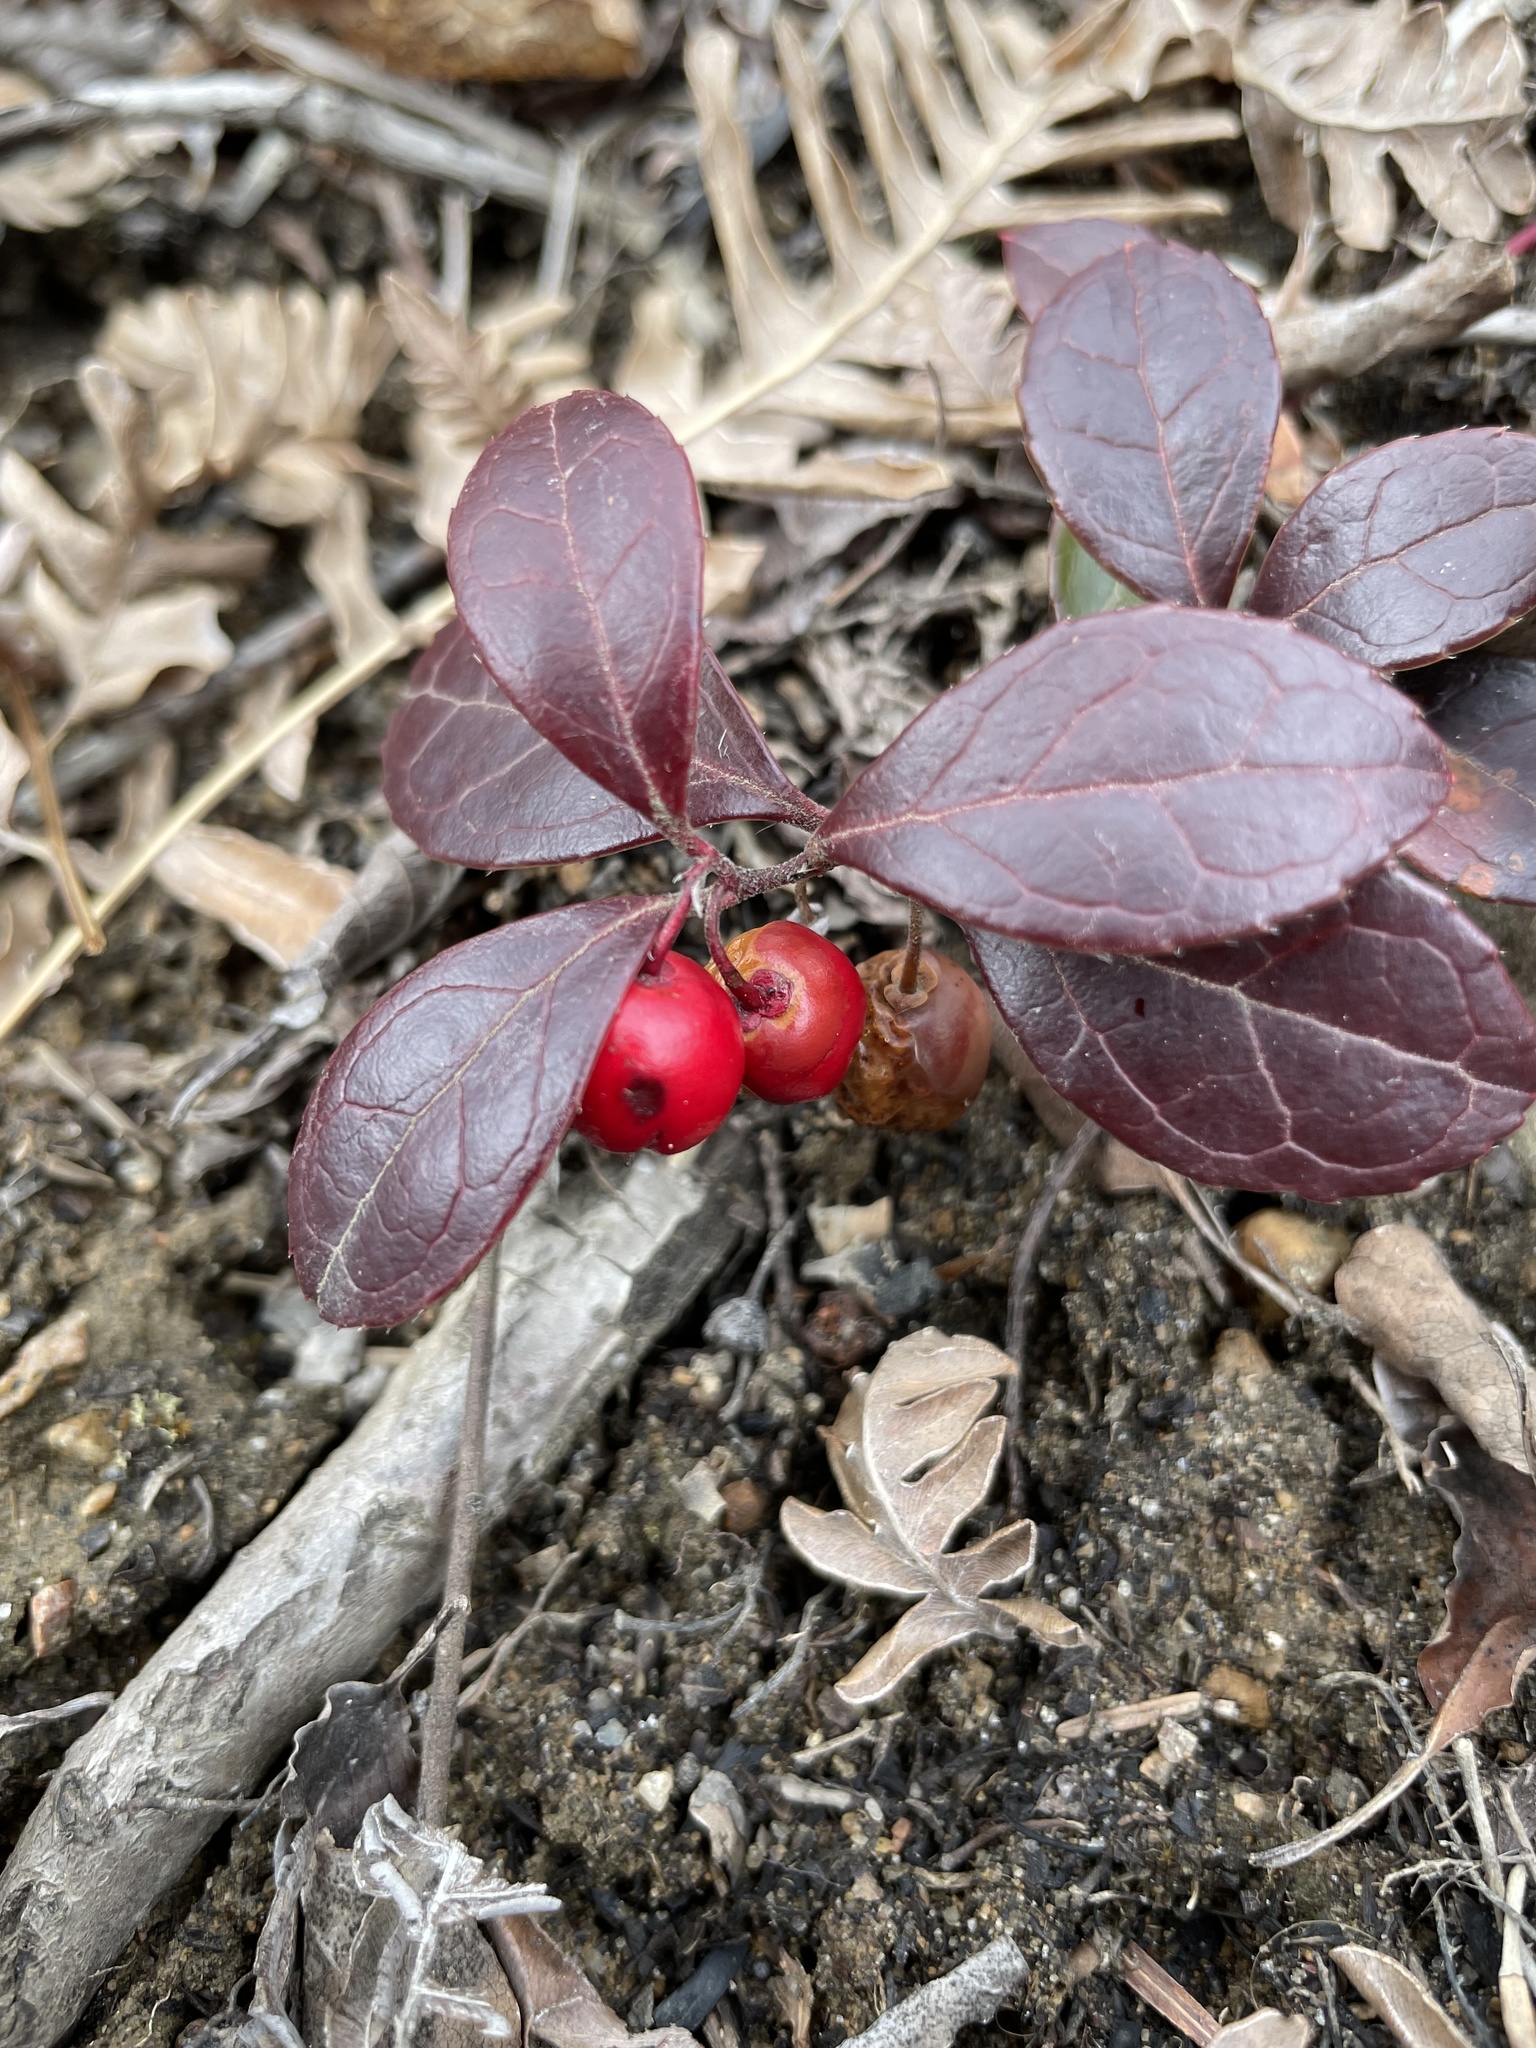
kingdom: Plantae
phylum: Tracheophyta
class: Magnoliopsida
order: Ericales
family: Ericaceae
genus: Gaultheria
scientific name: Gaultheria procumbens
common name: Checkerberry
